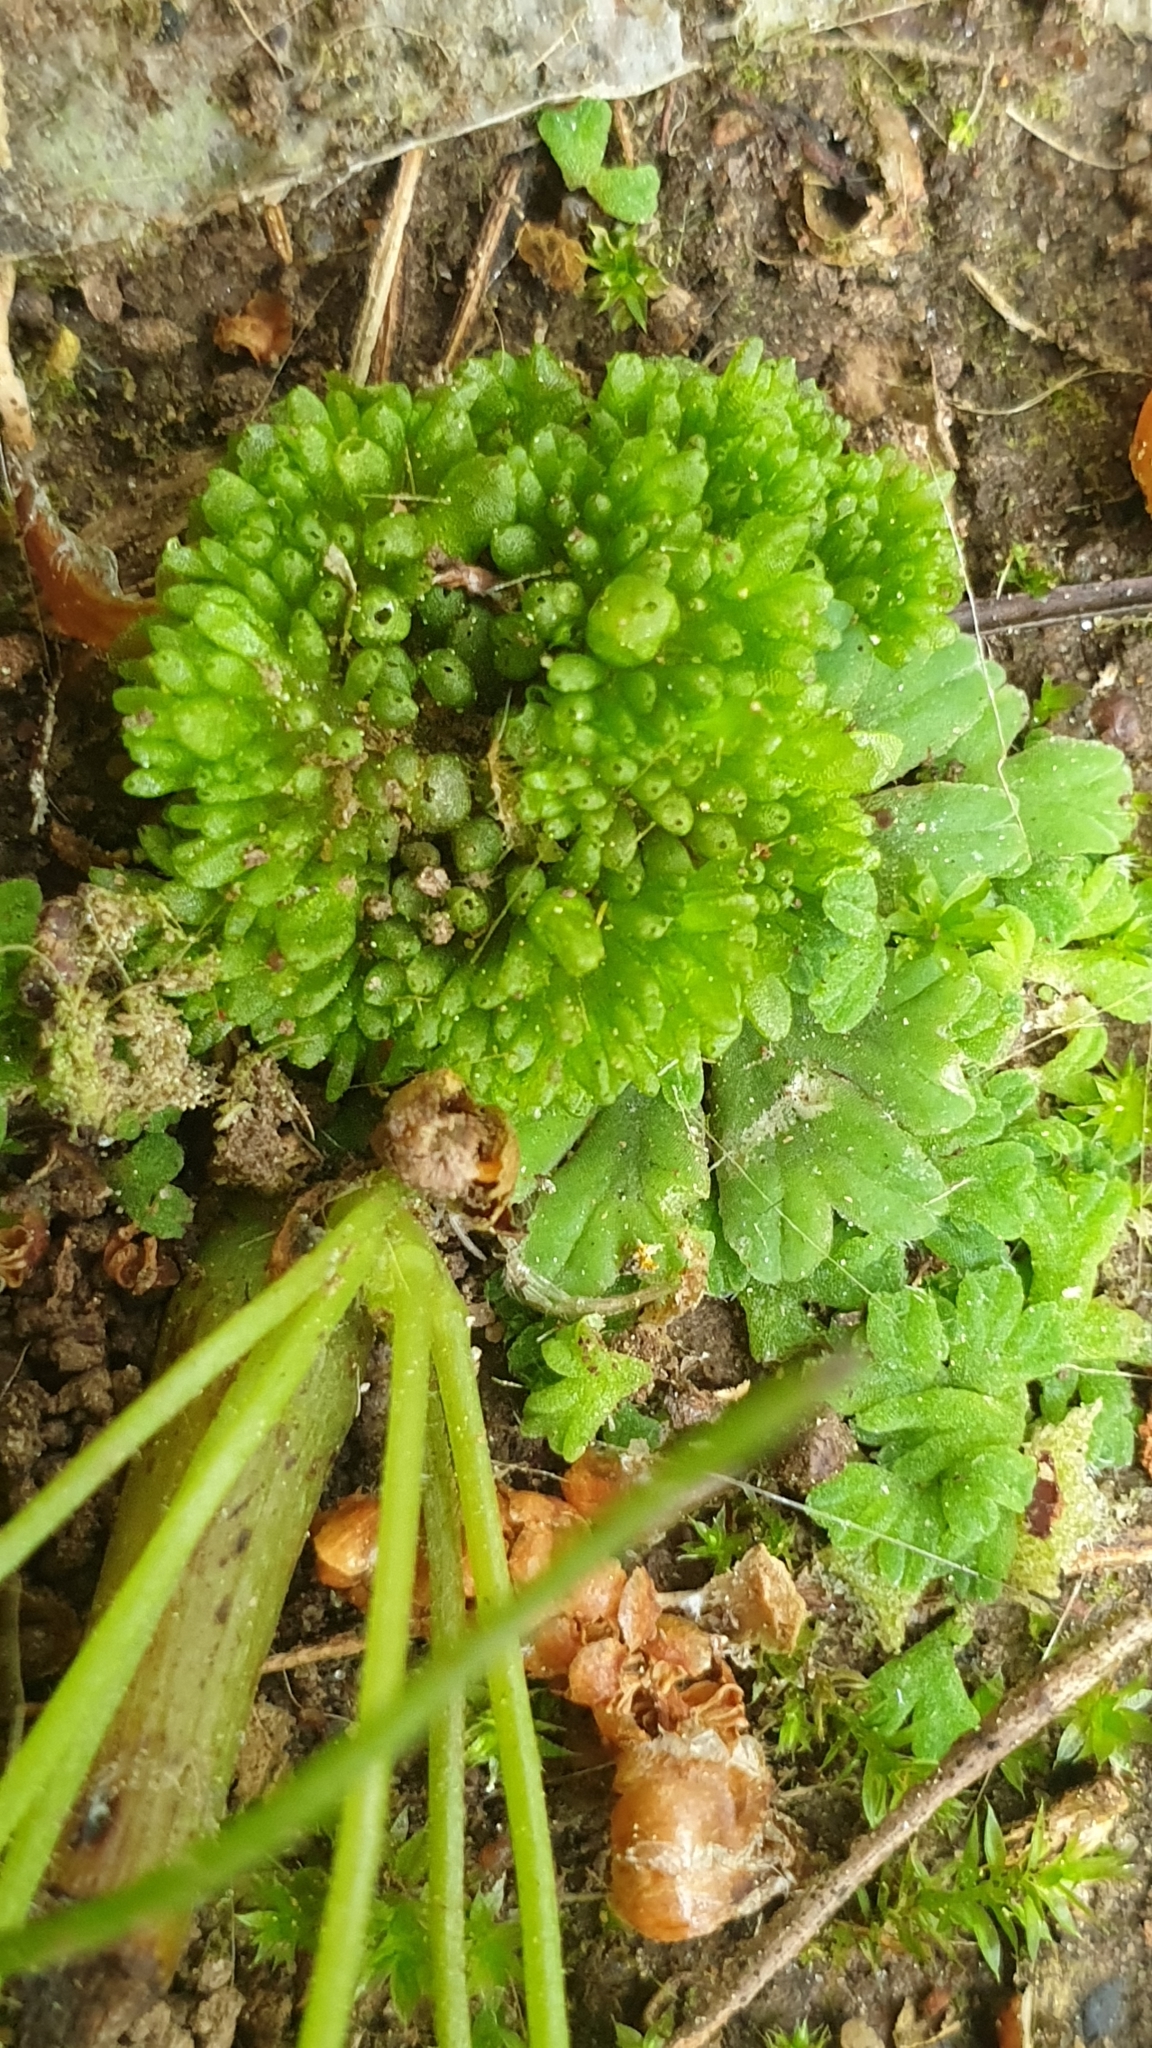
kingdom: Plantae
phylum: Marchantiophyta
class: Marchantiopsida
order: Sphaerocarpales
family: Sphaerocarpaceae
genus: Sphaerocarpos
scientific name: Sphaerocarpos texanus
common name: Texas balloonwort
